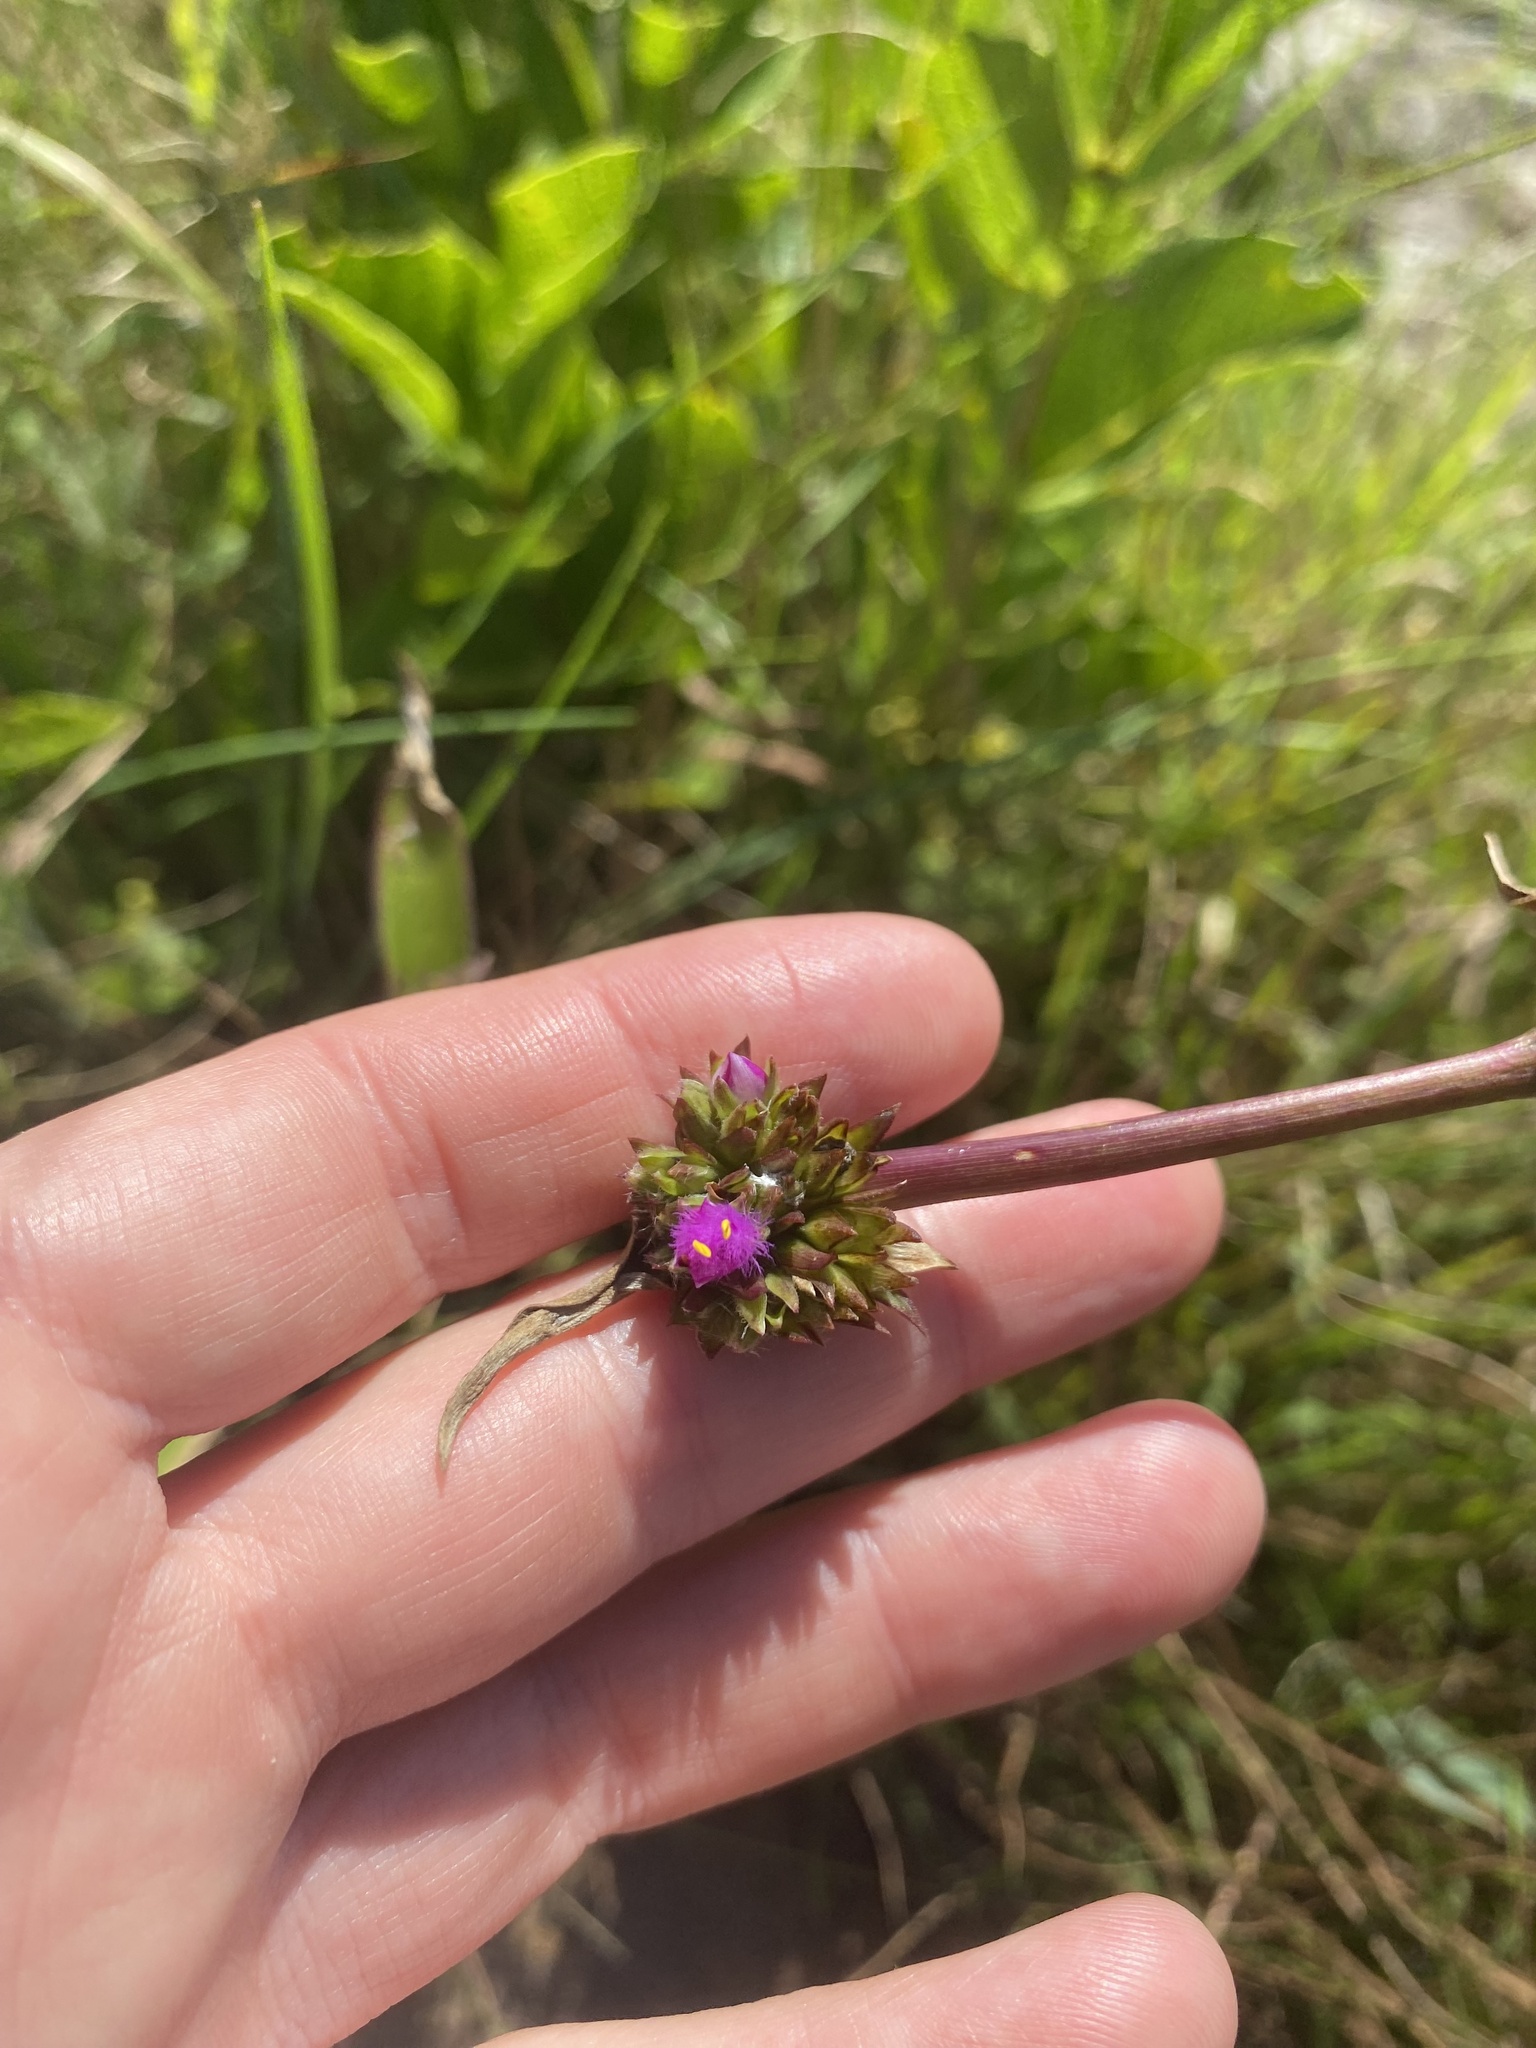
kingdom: Plantae
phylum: Tracheophyta
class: Liliopsida
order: Commelinales
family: Commelinaceae
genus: Cyanotis
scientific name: Cyanotis speciosa
